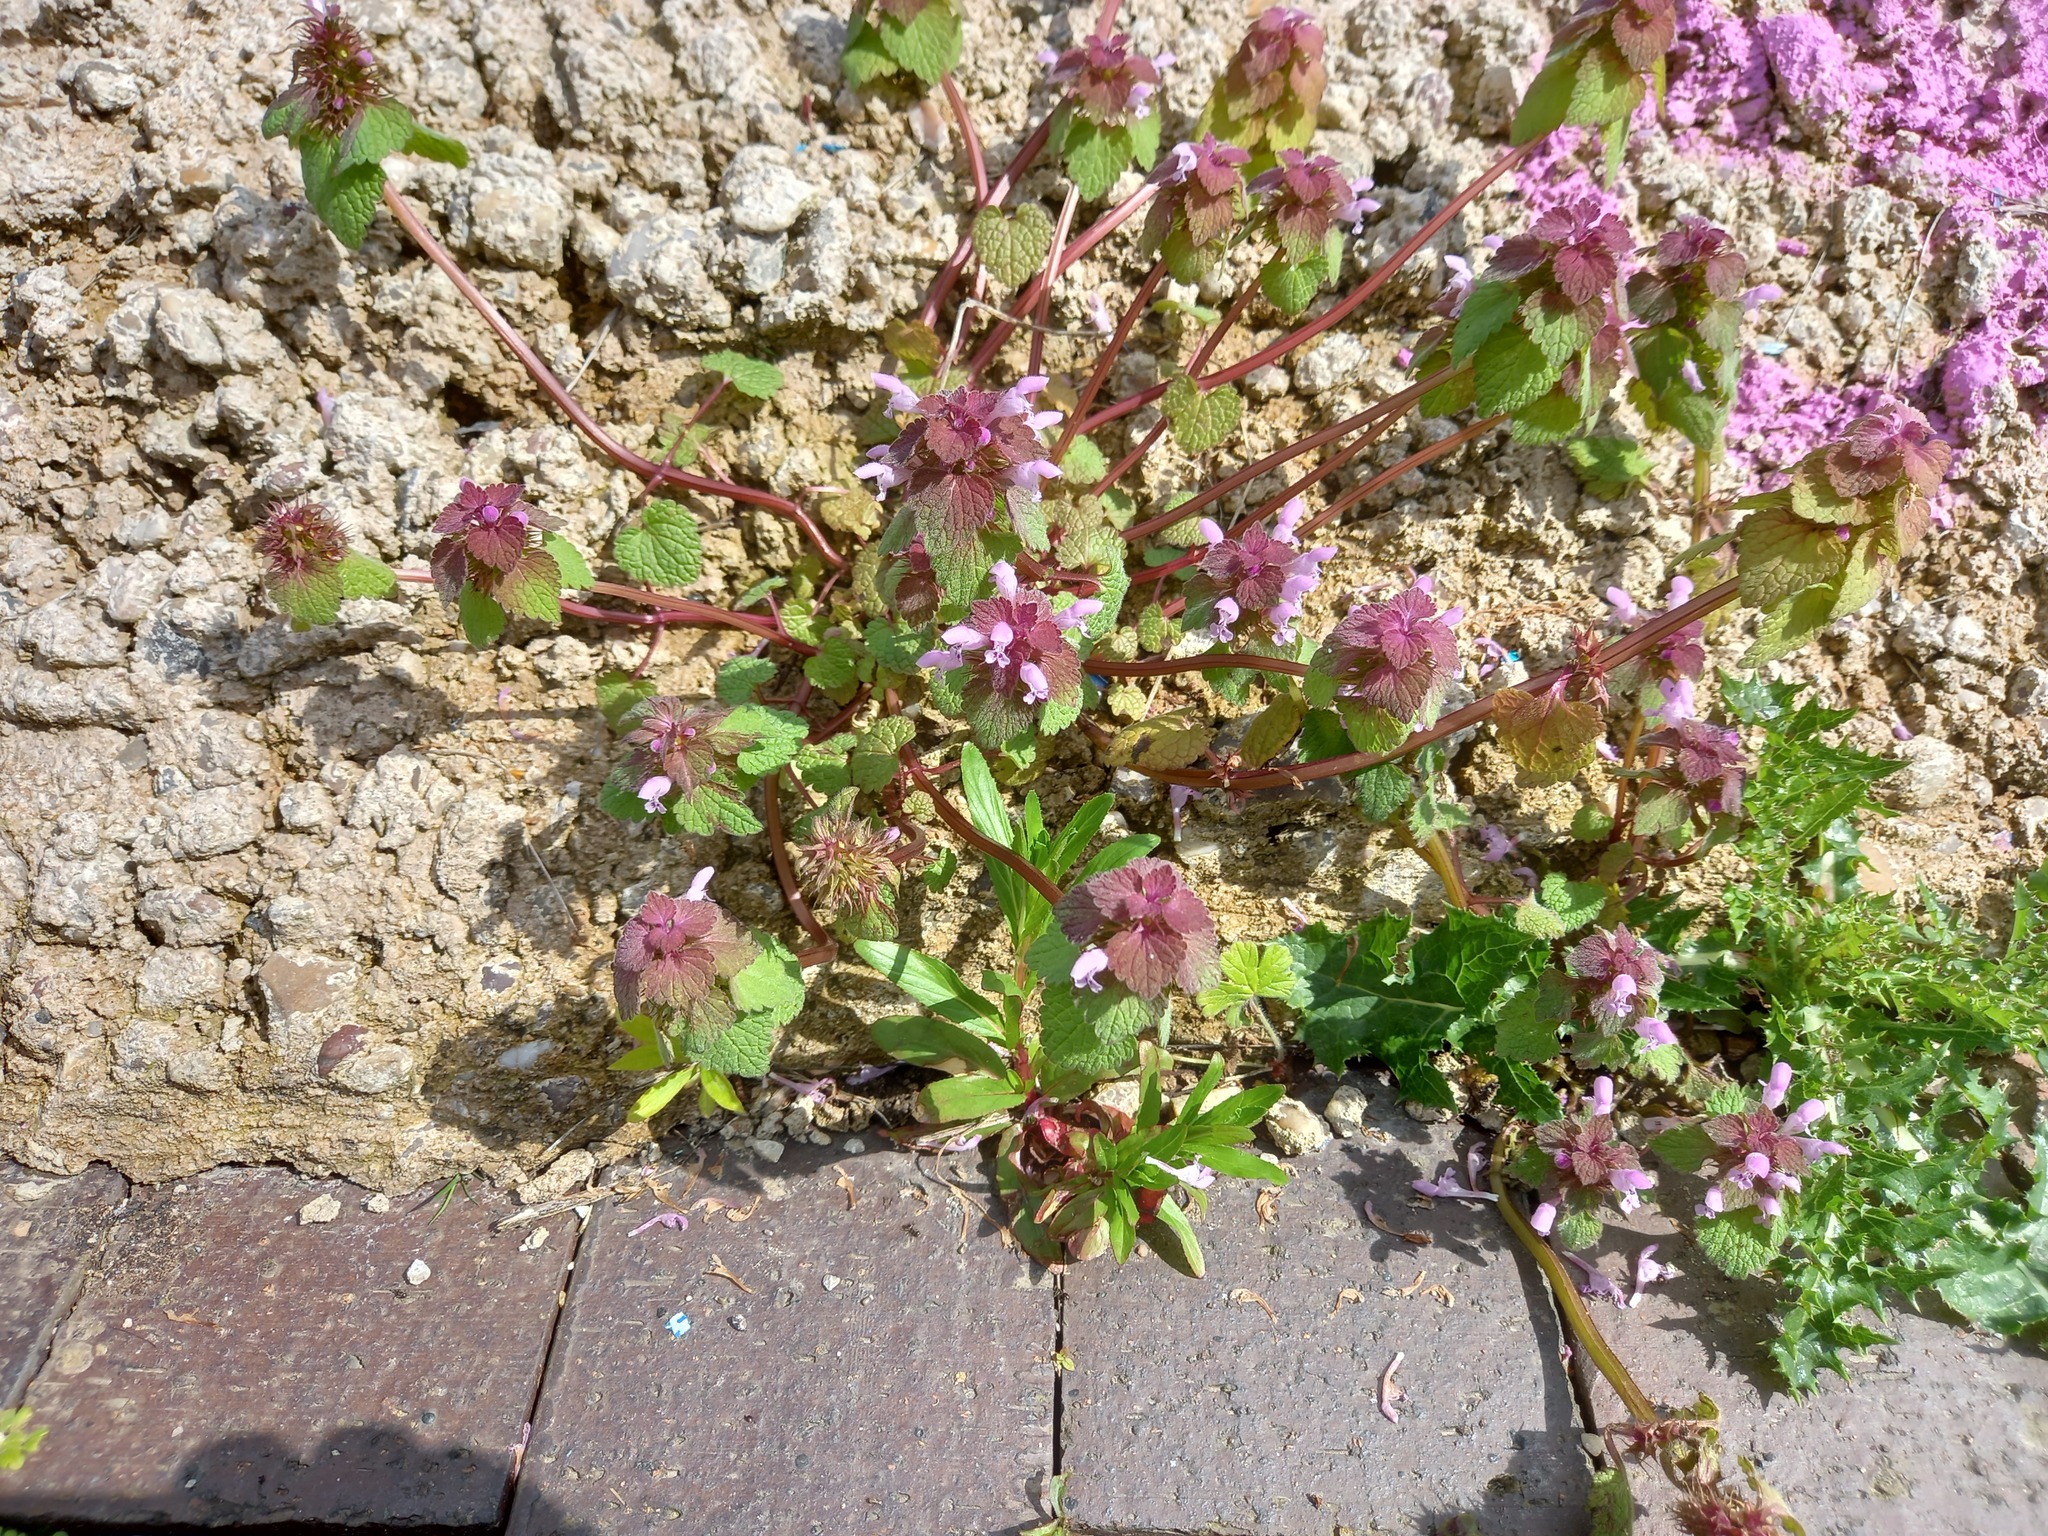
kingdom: Plantae
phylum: Tracheophyta
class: Magnoliopsida
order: Lamiales
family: Lamiaceae
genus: Lamium
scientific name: Lamium purpureum
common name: Red dead-nettle
